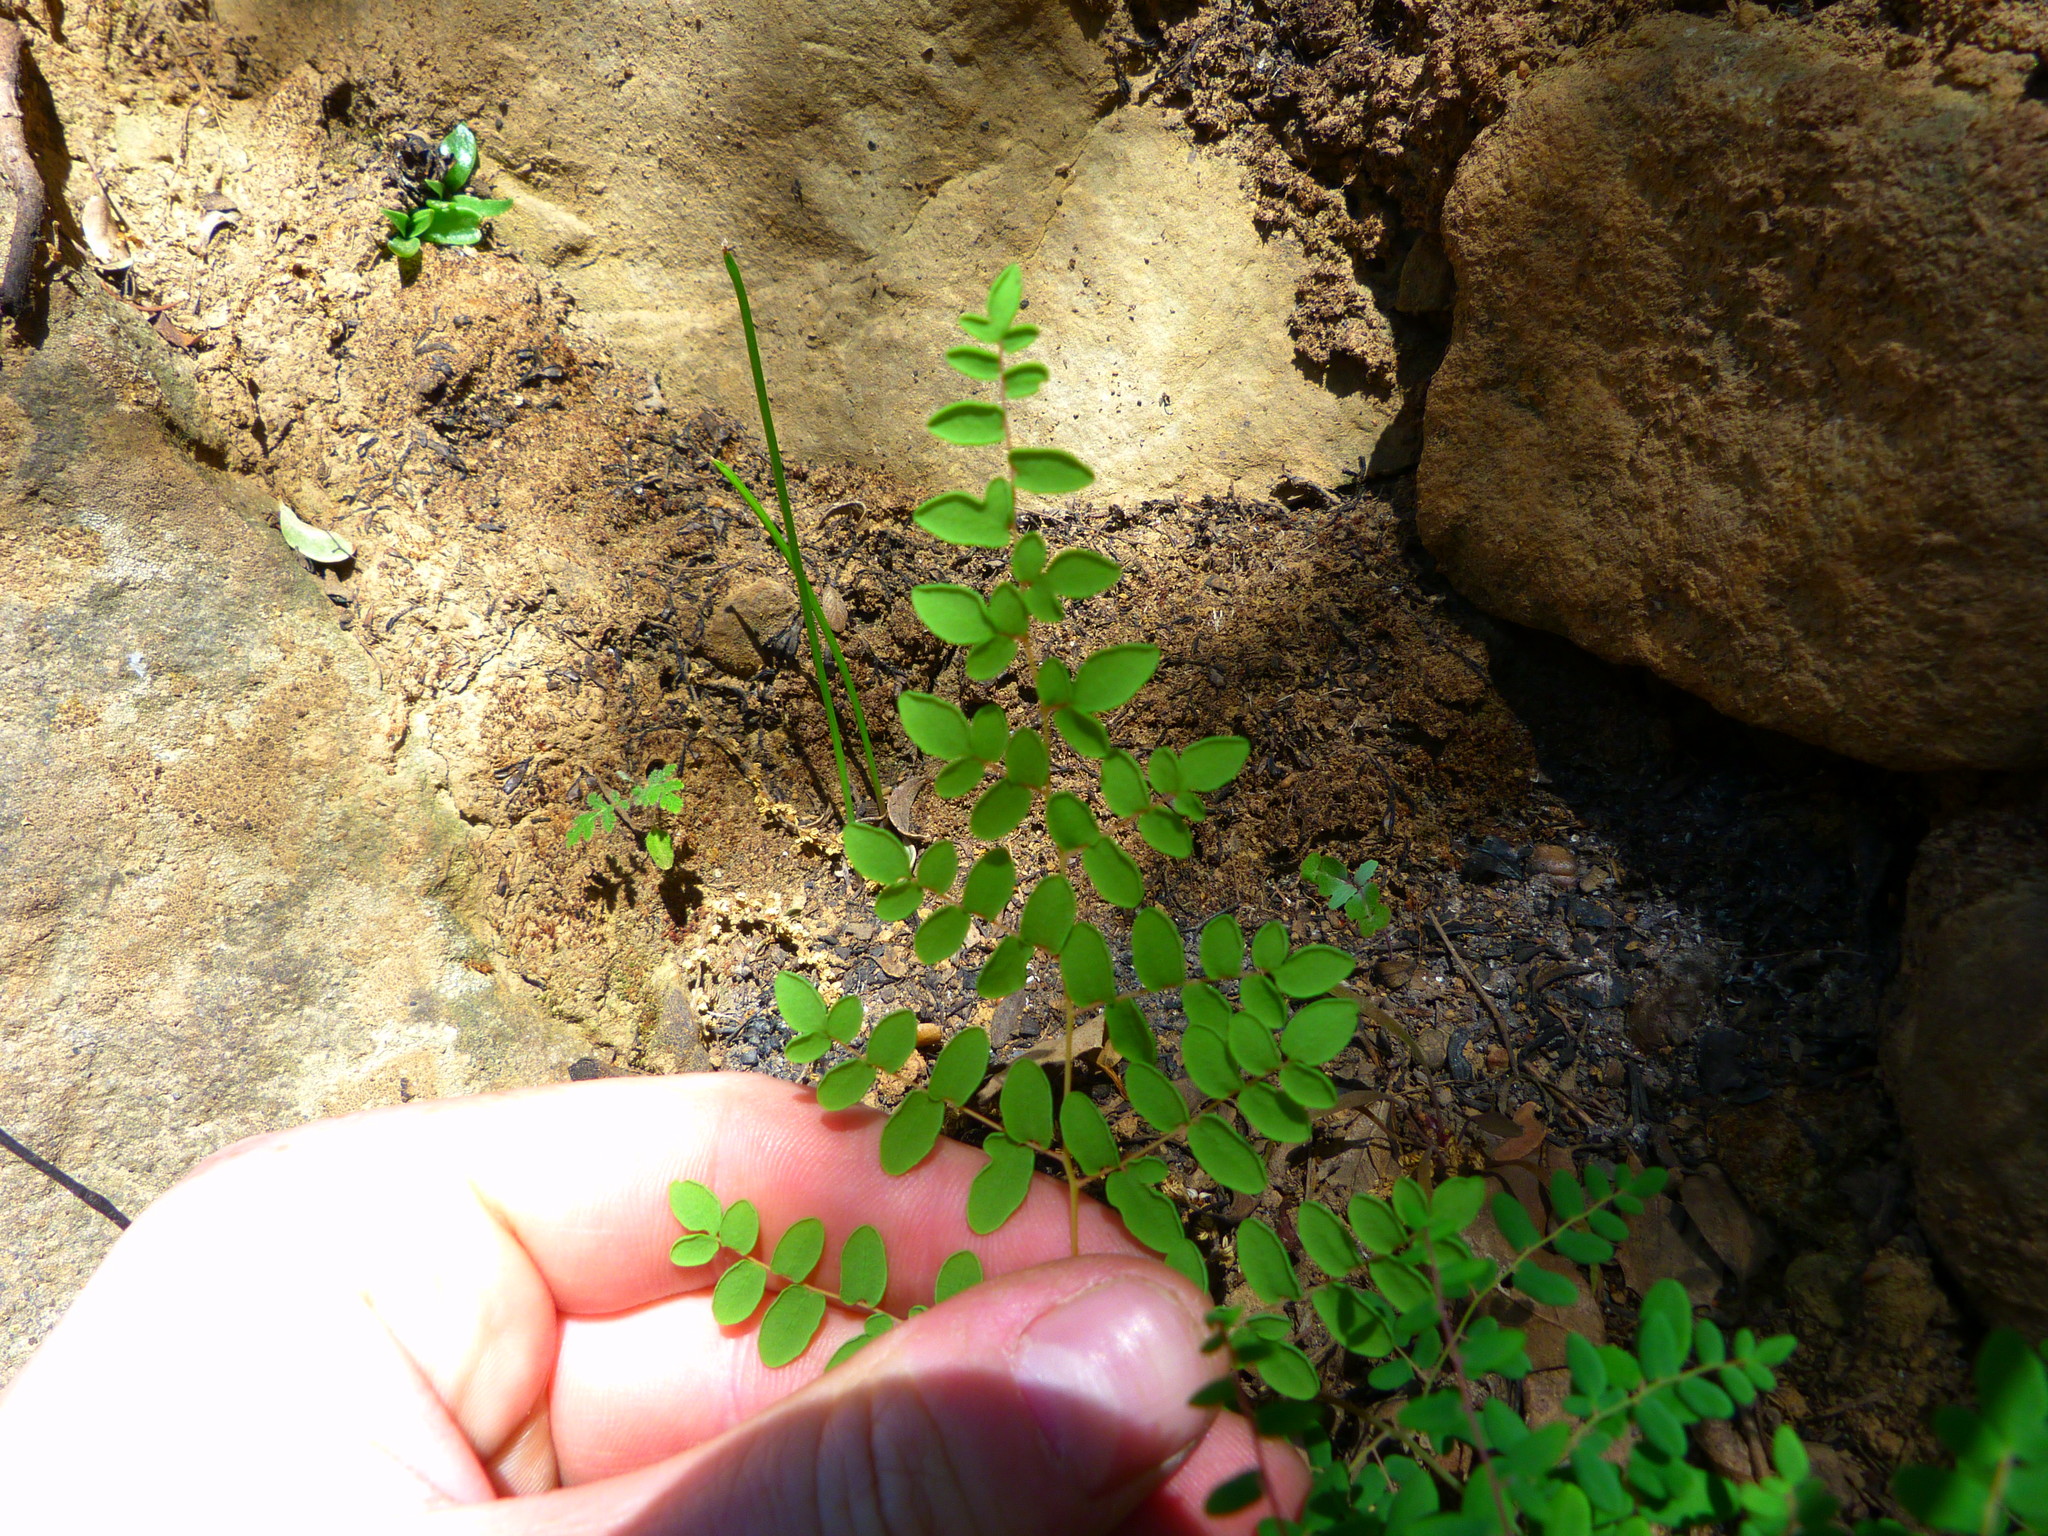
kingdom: Plantae
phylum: Tracheophyta
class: Polypodiopsida
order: Polypodiales
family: Pteridaceae
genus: Pellaea
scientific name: Pellaea andromedifolia
